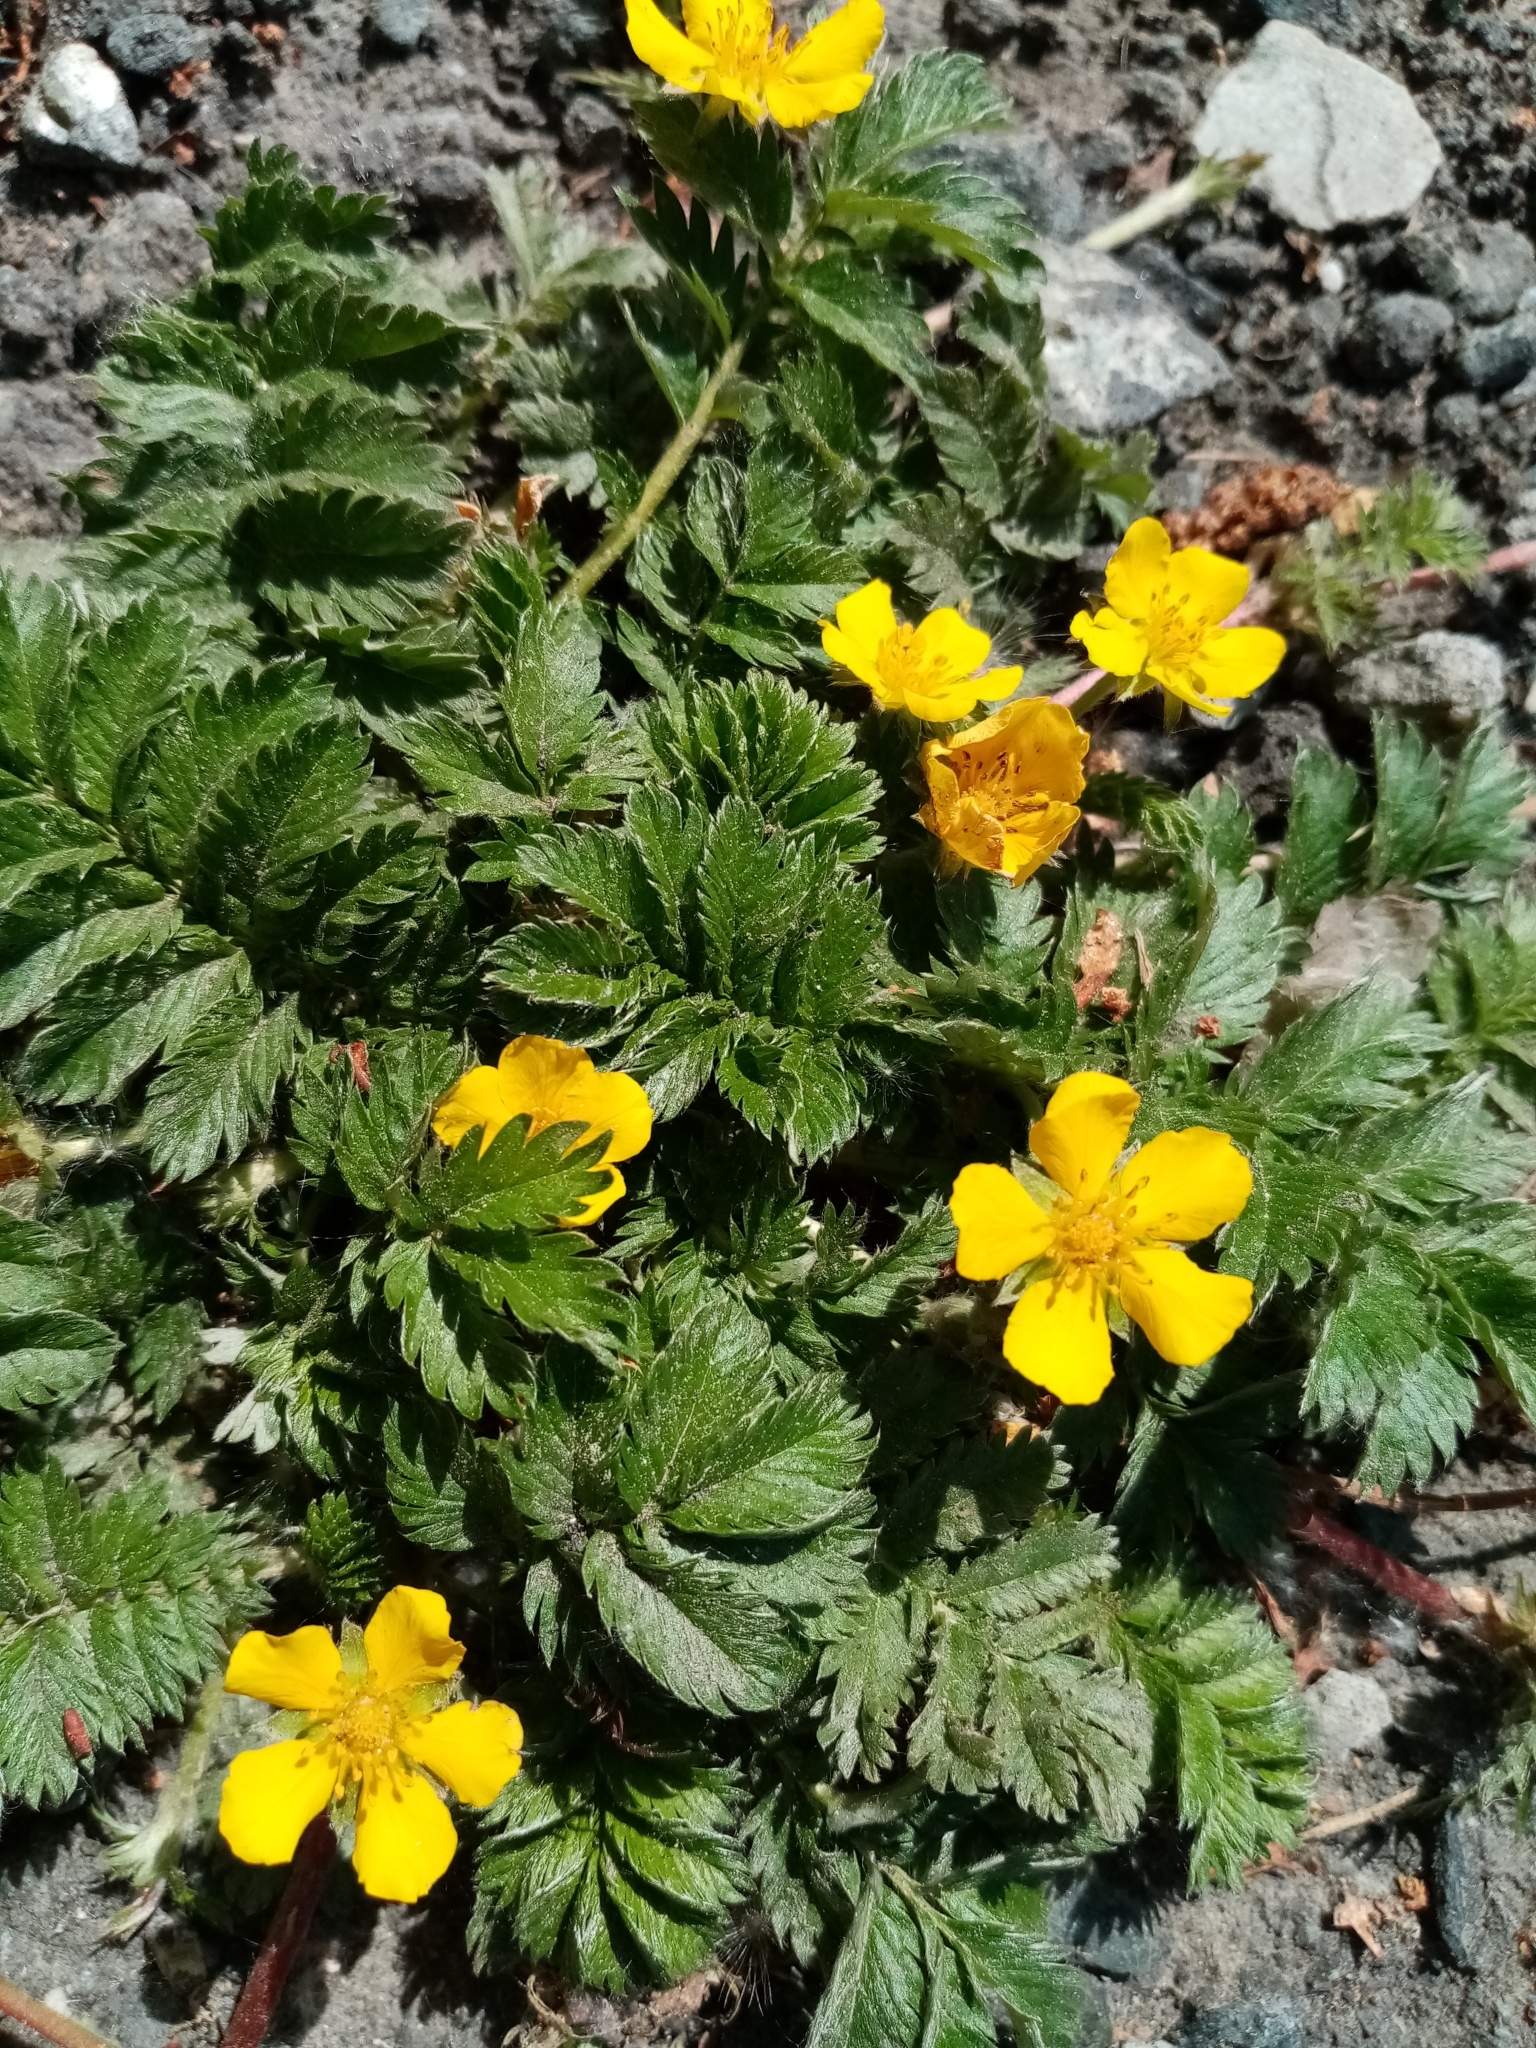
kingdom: Plantae
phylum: Tracheophyta
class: Magnoliopsida
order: Rosales
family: Rosaceae
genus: Argentina
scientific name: Argentina anserina
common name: Common silverweed
